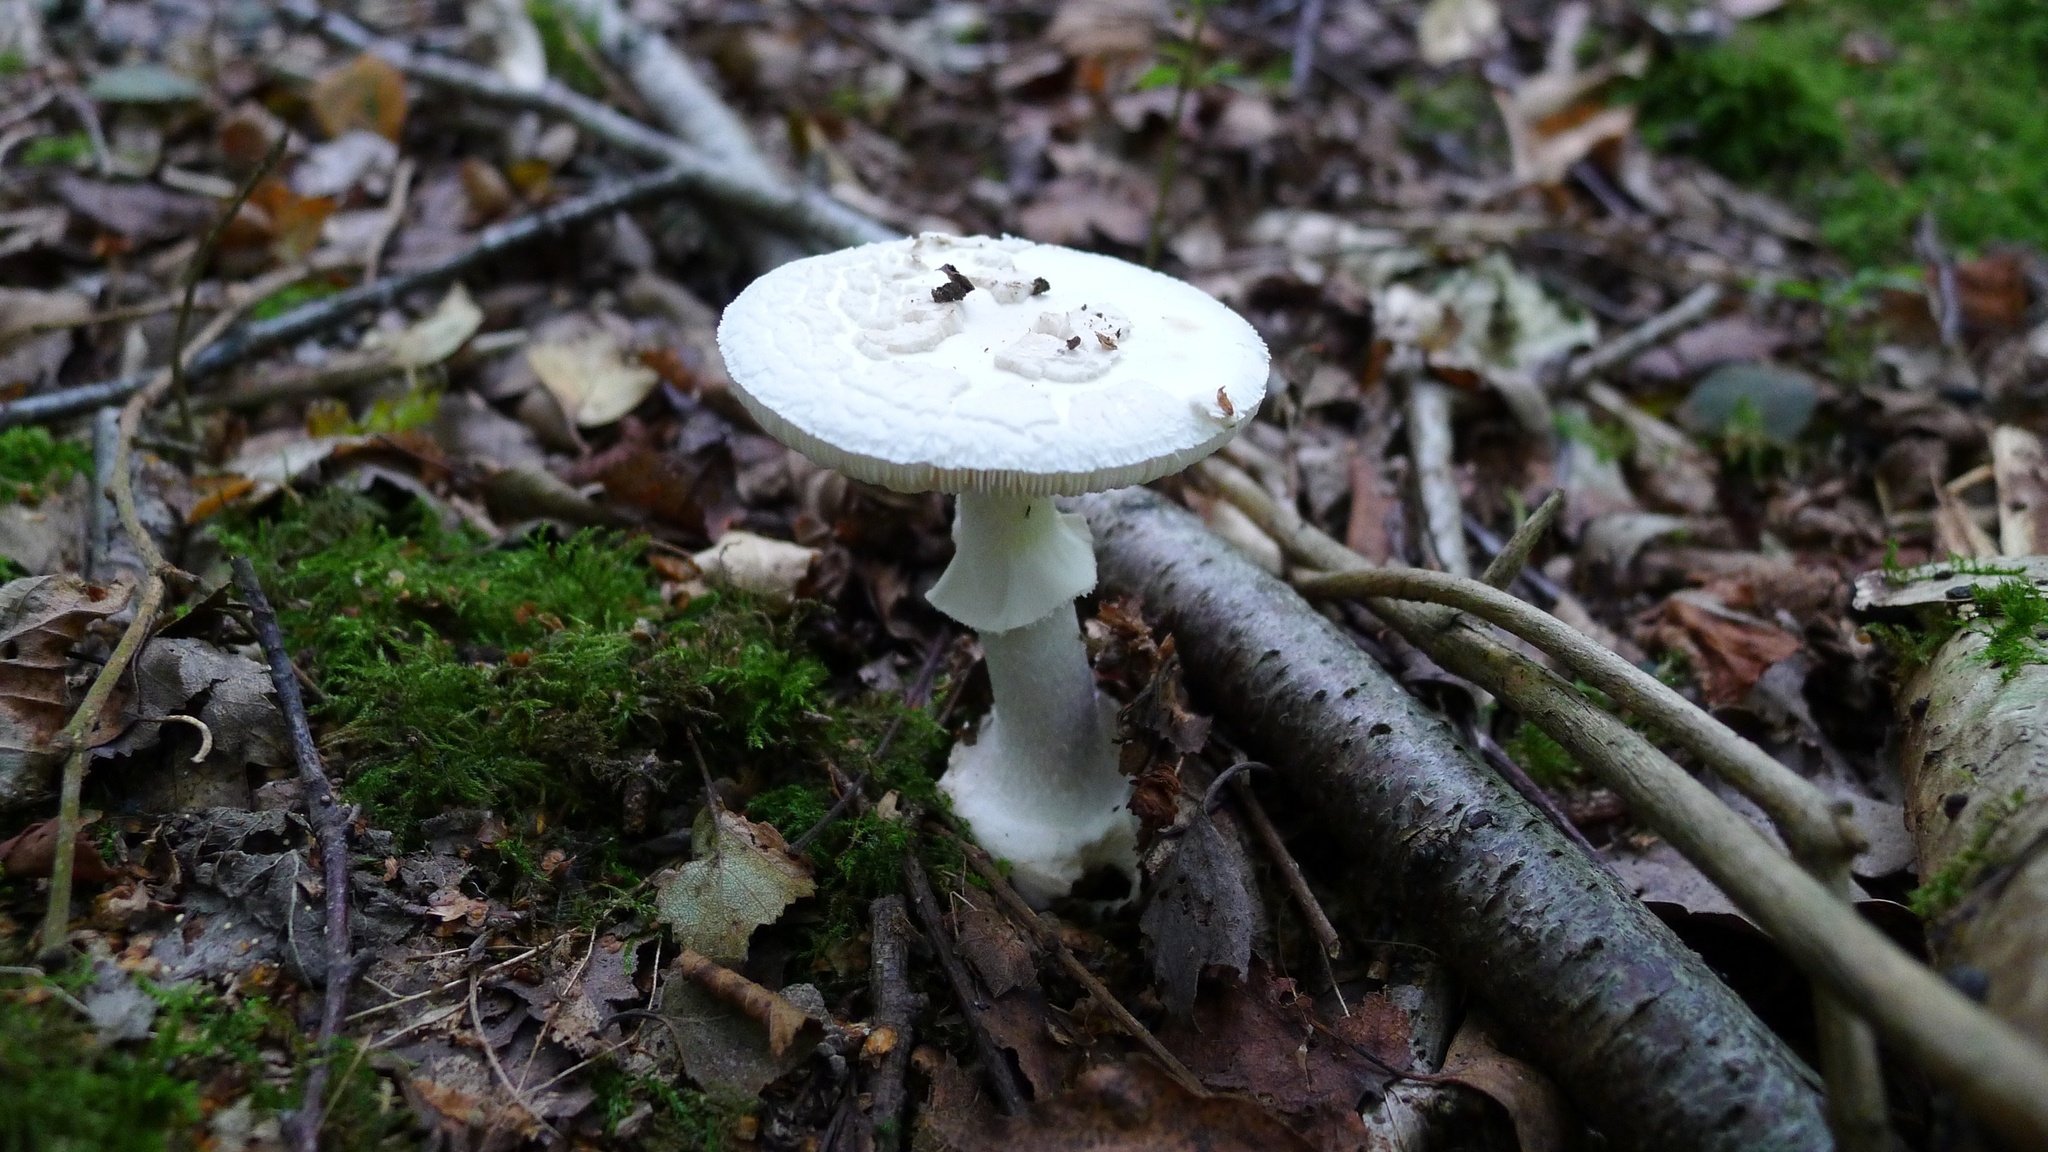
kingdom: Fungi
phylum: Basidiomycota
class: Agaricomycetes
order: Agaricales
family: Amanitaceae
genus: Amanita
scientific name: Amanita citrina
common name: False death-cap
